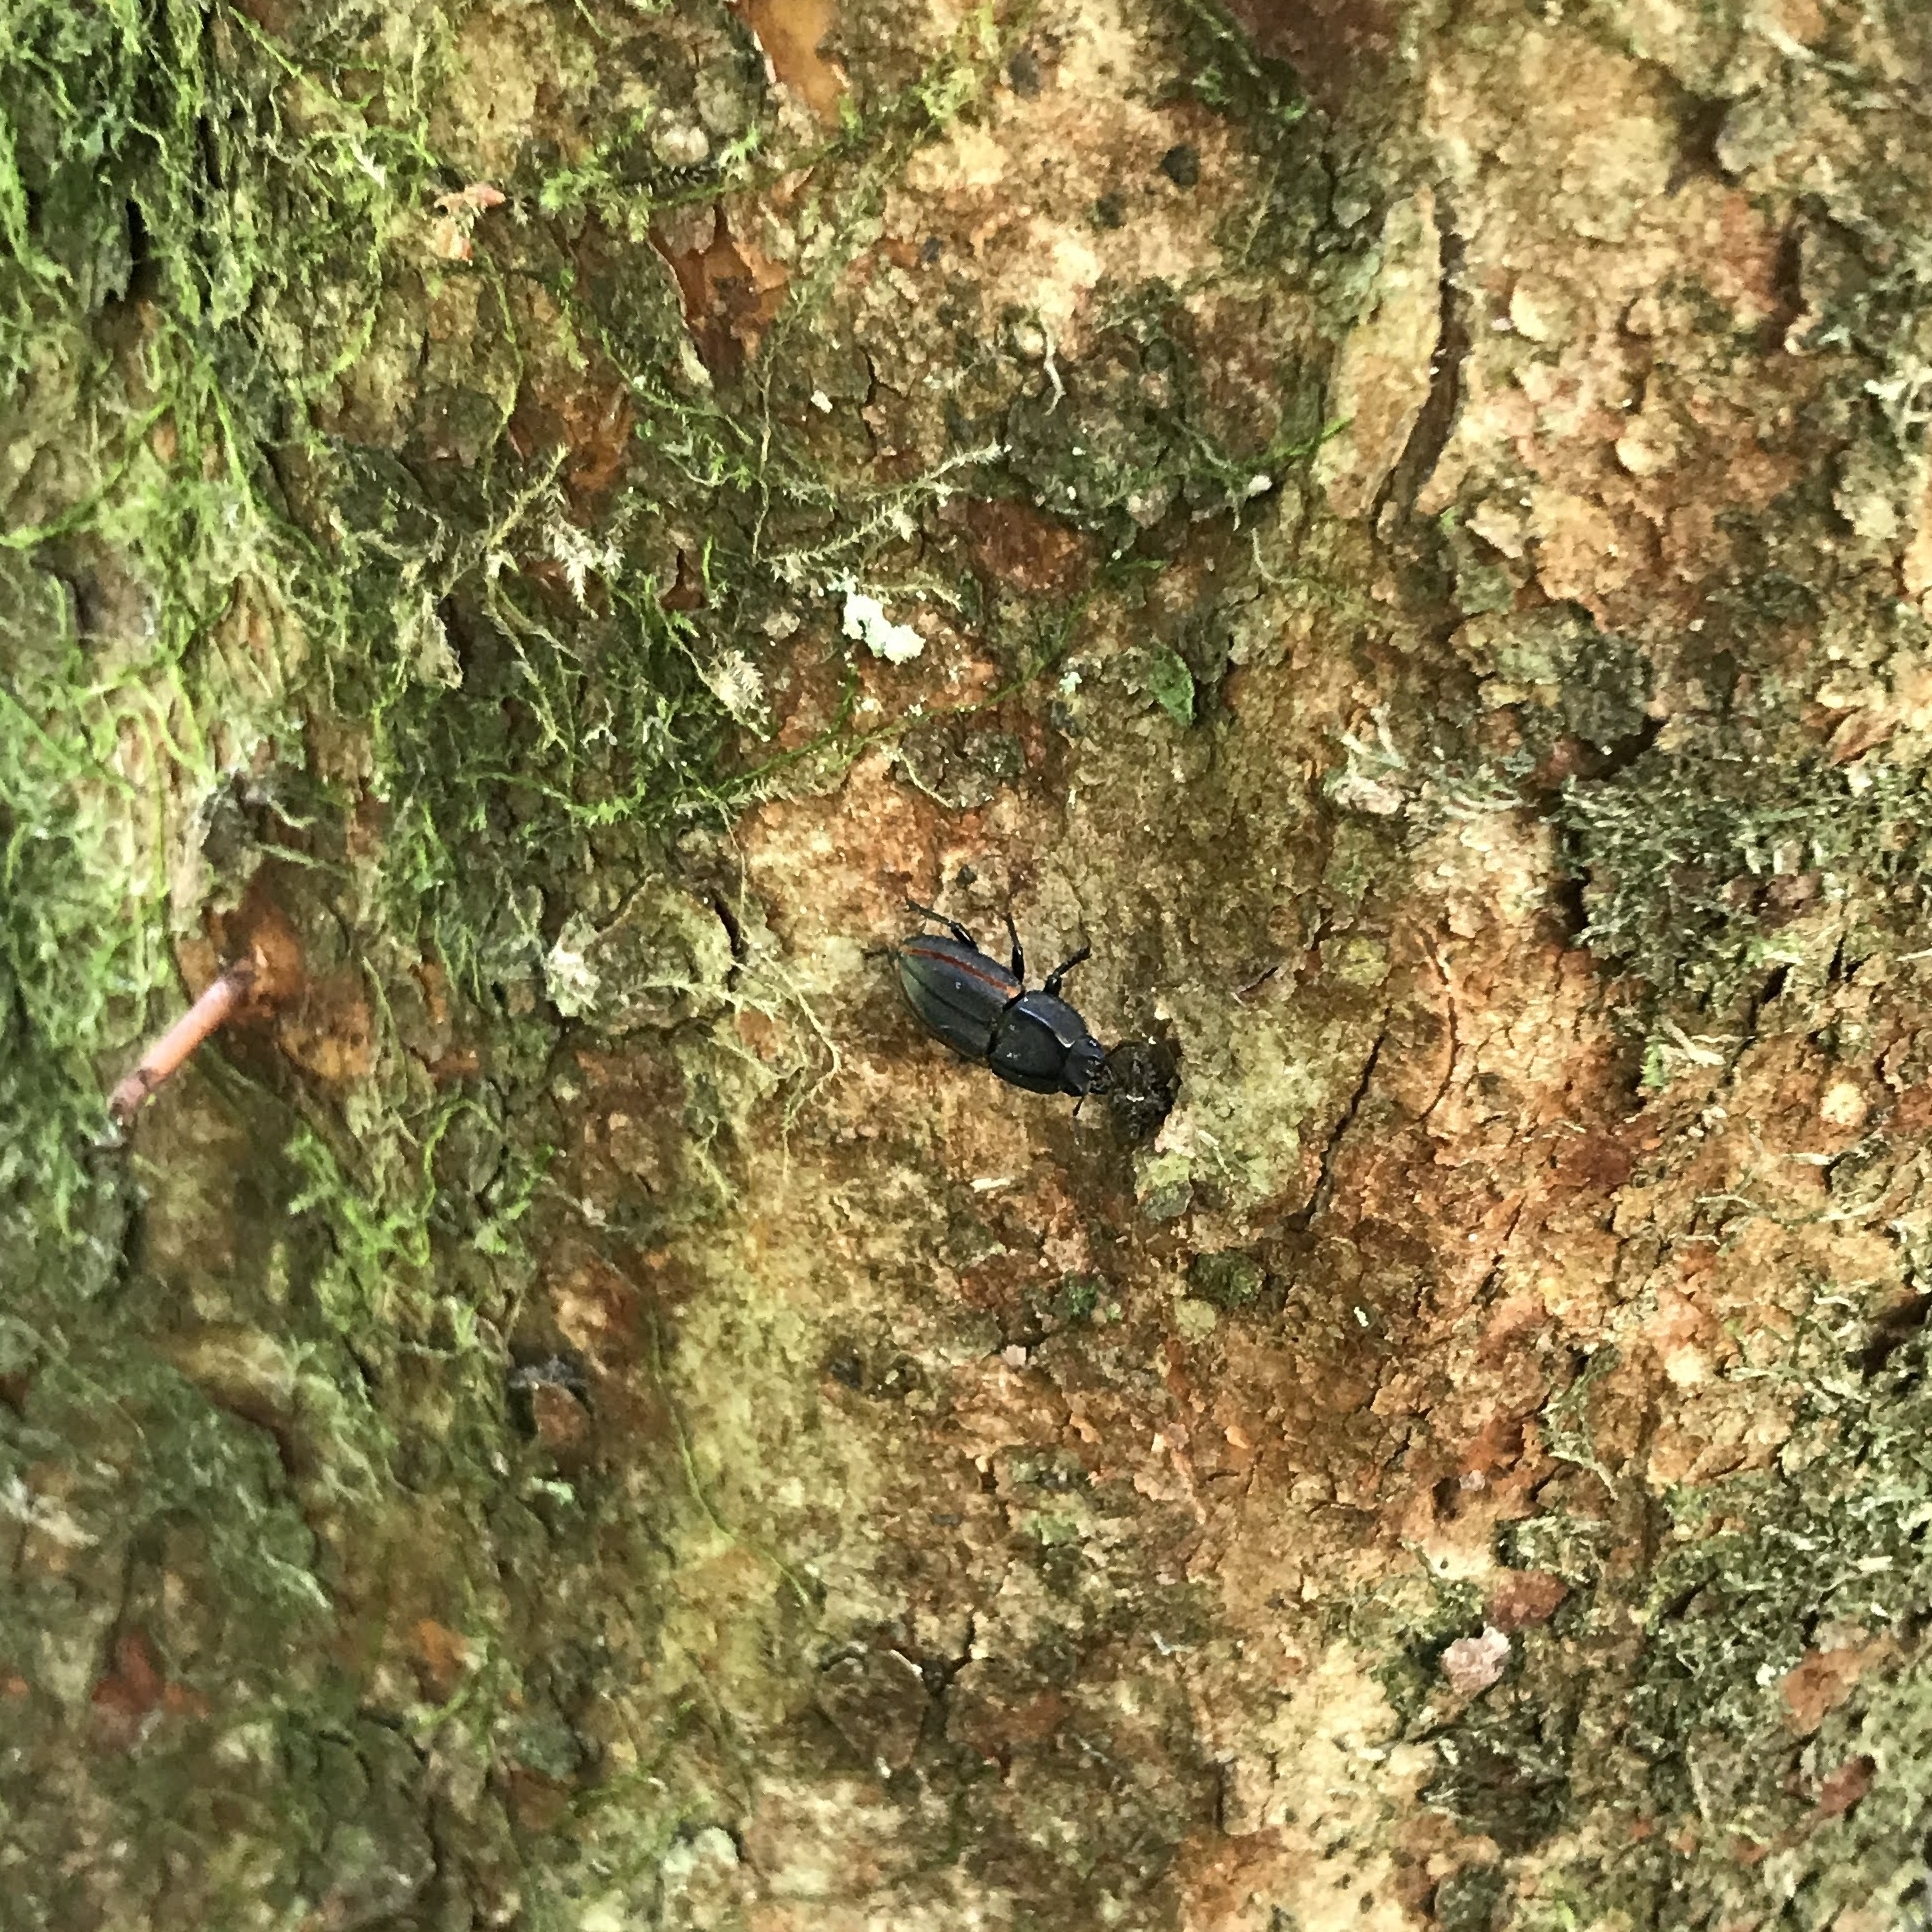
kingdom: Animalia
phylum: Arthropoda
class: Insecta
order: Coleoptera
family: Lucanidae
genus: Erichius
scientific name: Erichius vittatus
